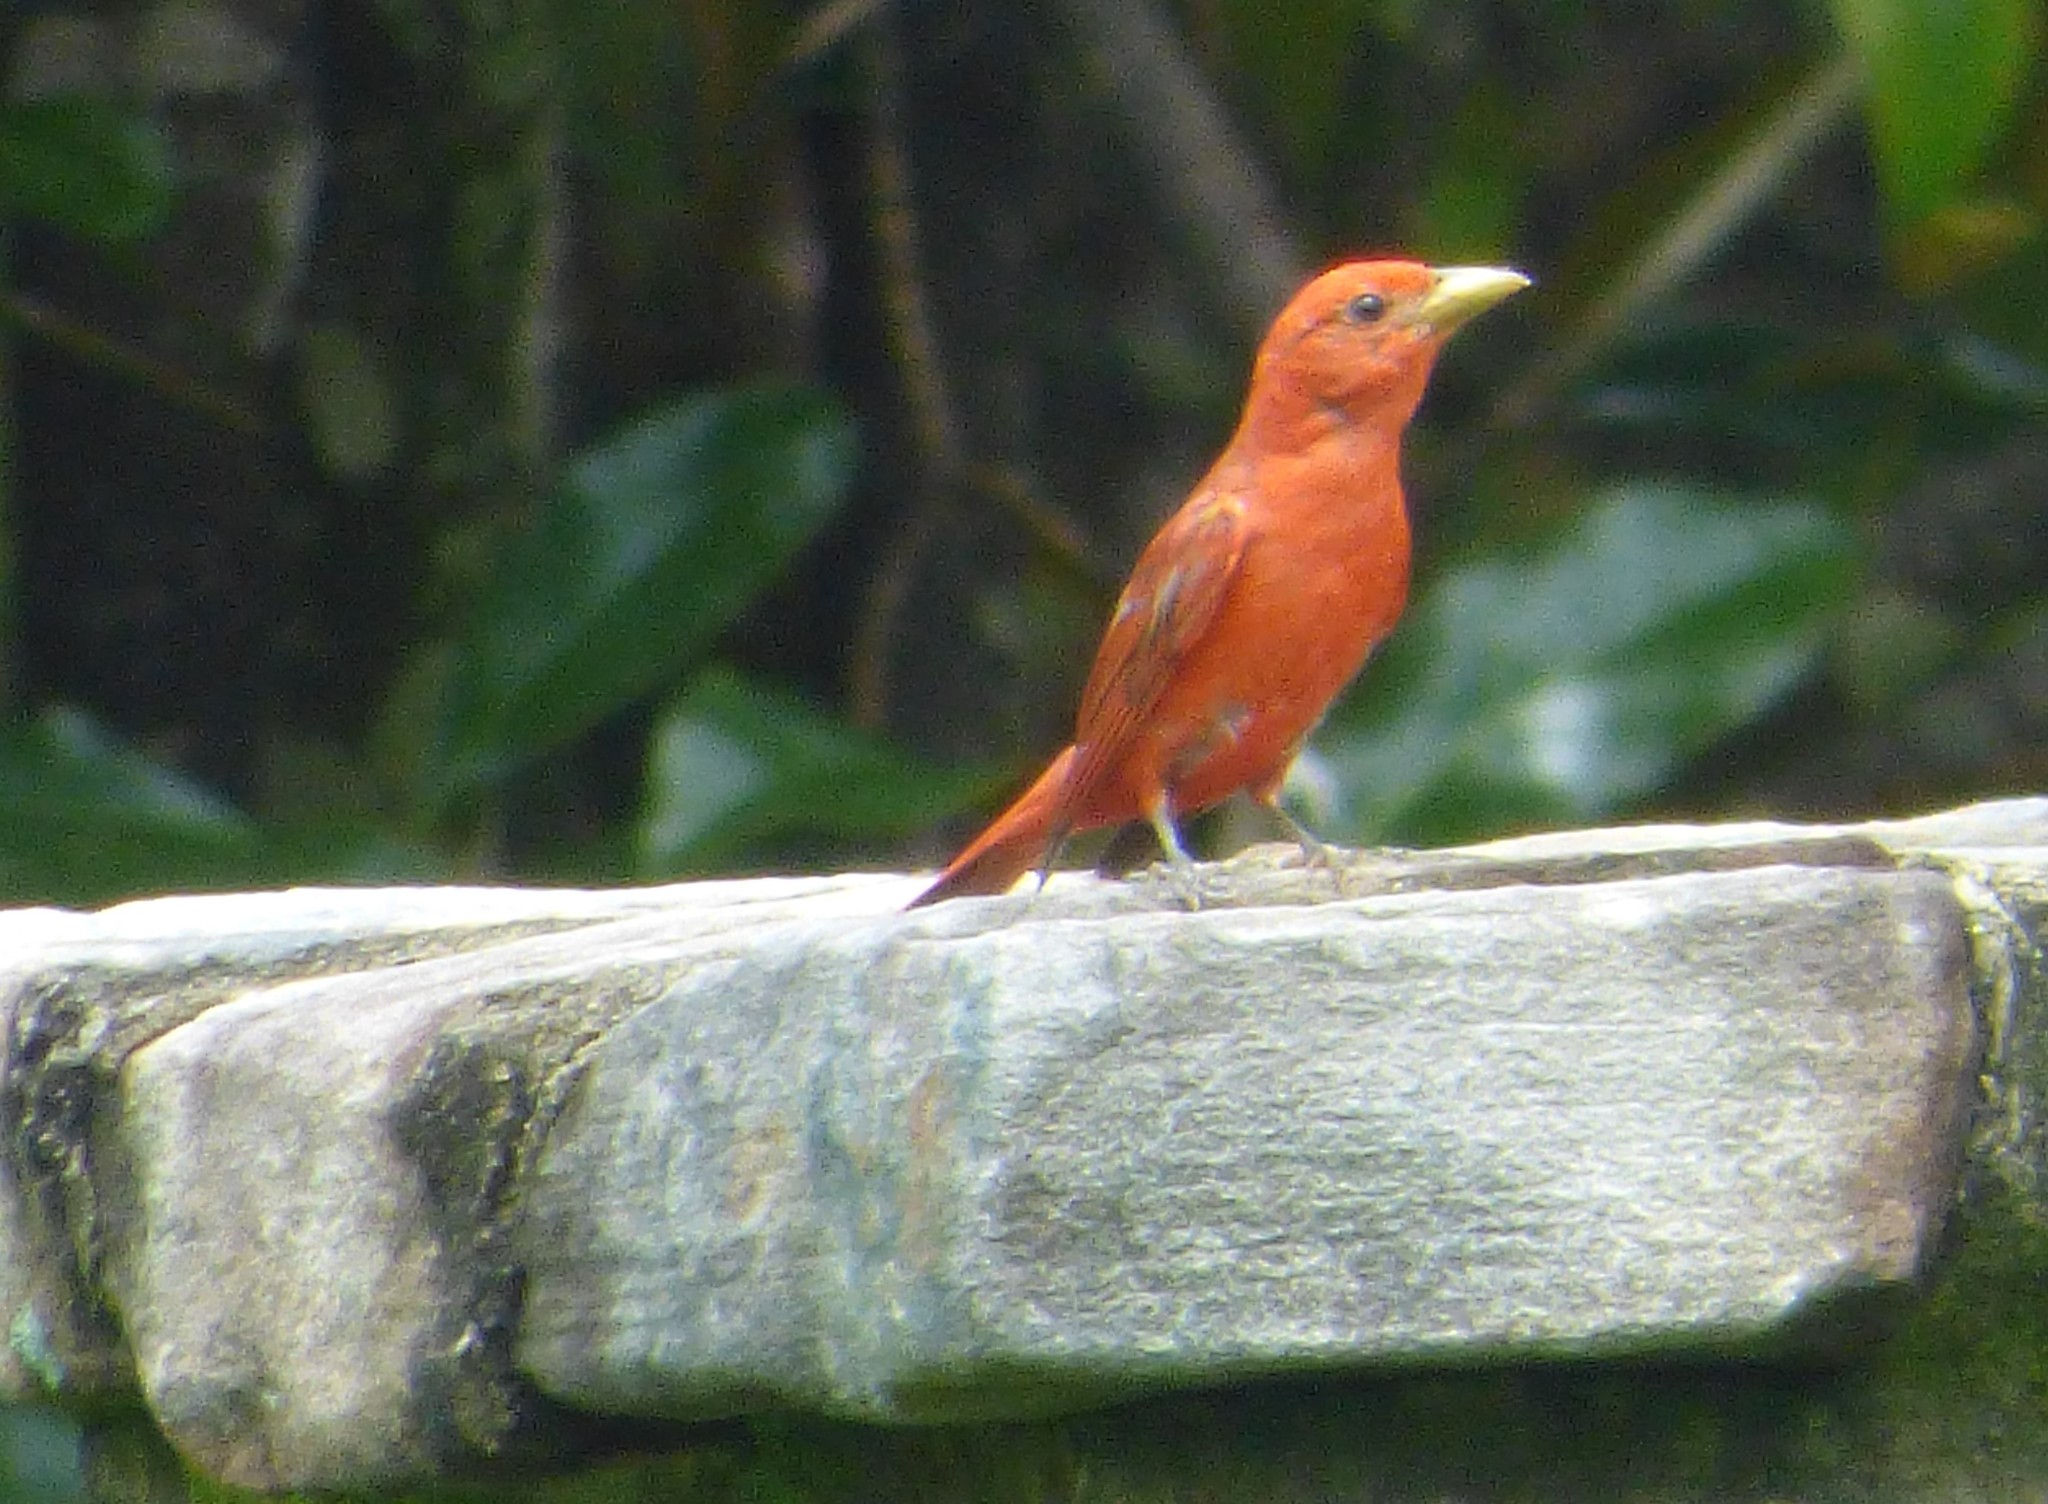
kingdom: Animalia
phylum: Chordata
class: Aves
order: Passeriformes
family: Cardinalidae
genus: Piranga
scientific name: Piranga rubra
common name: Summer tanager
